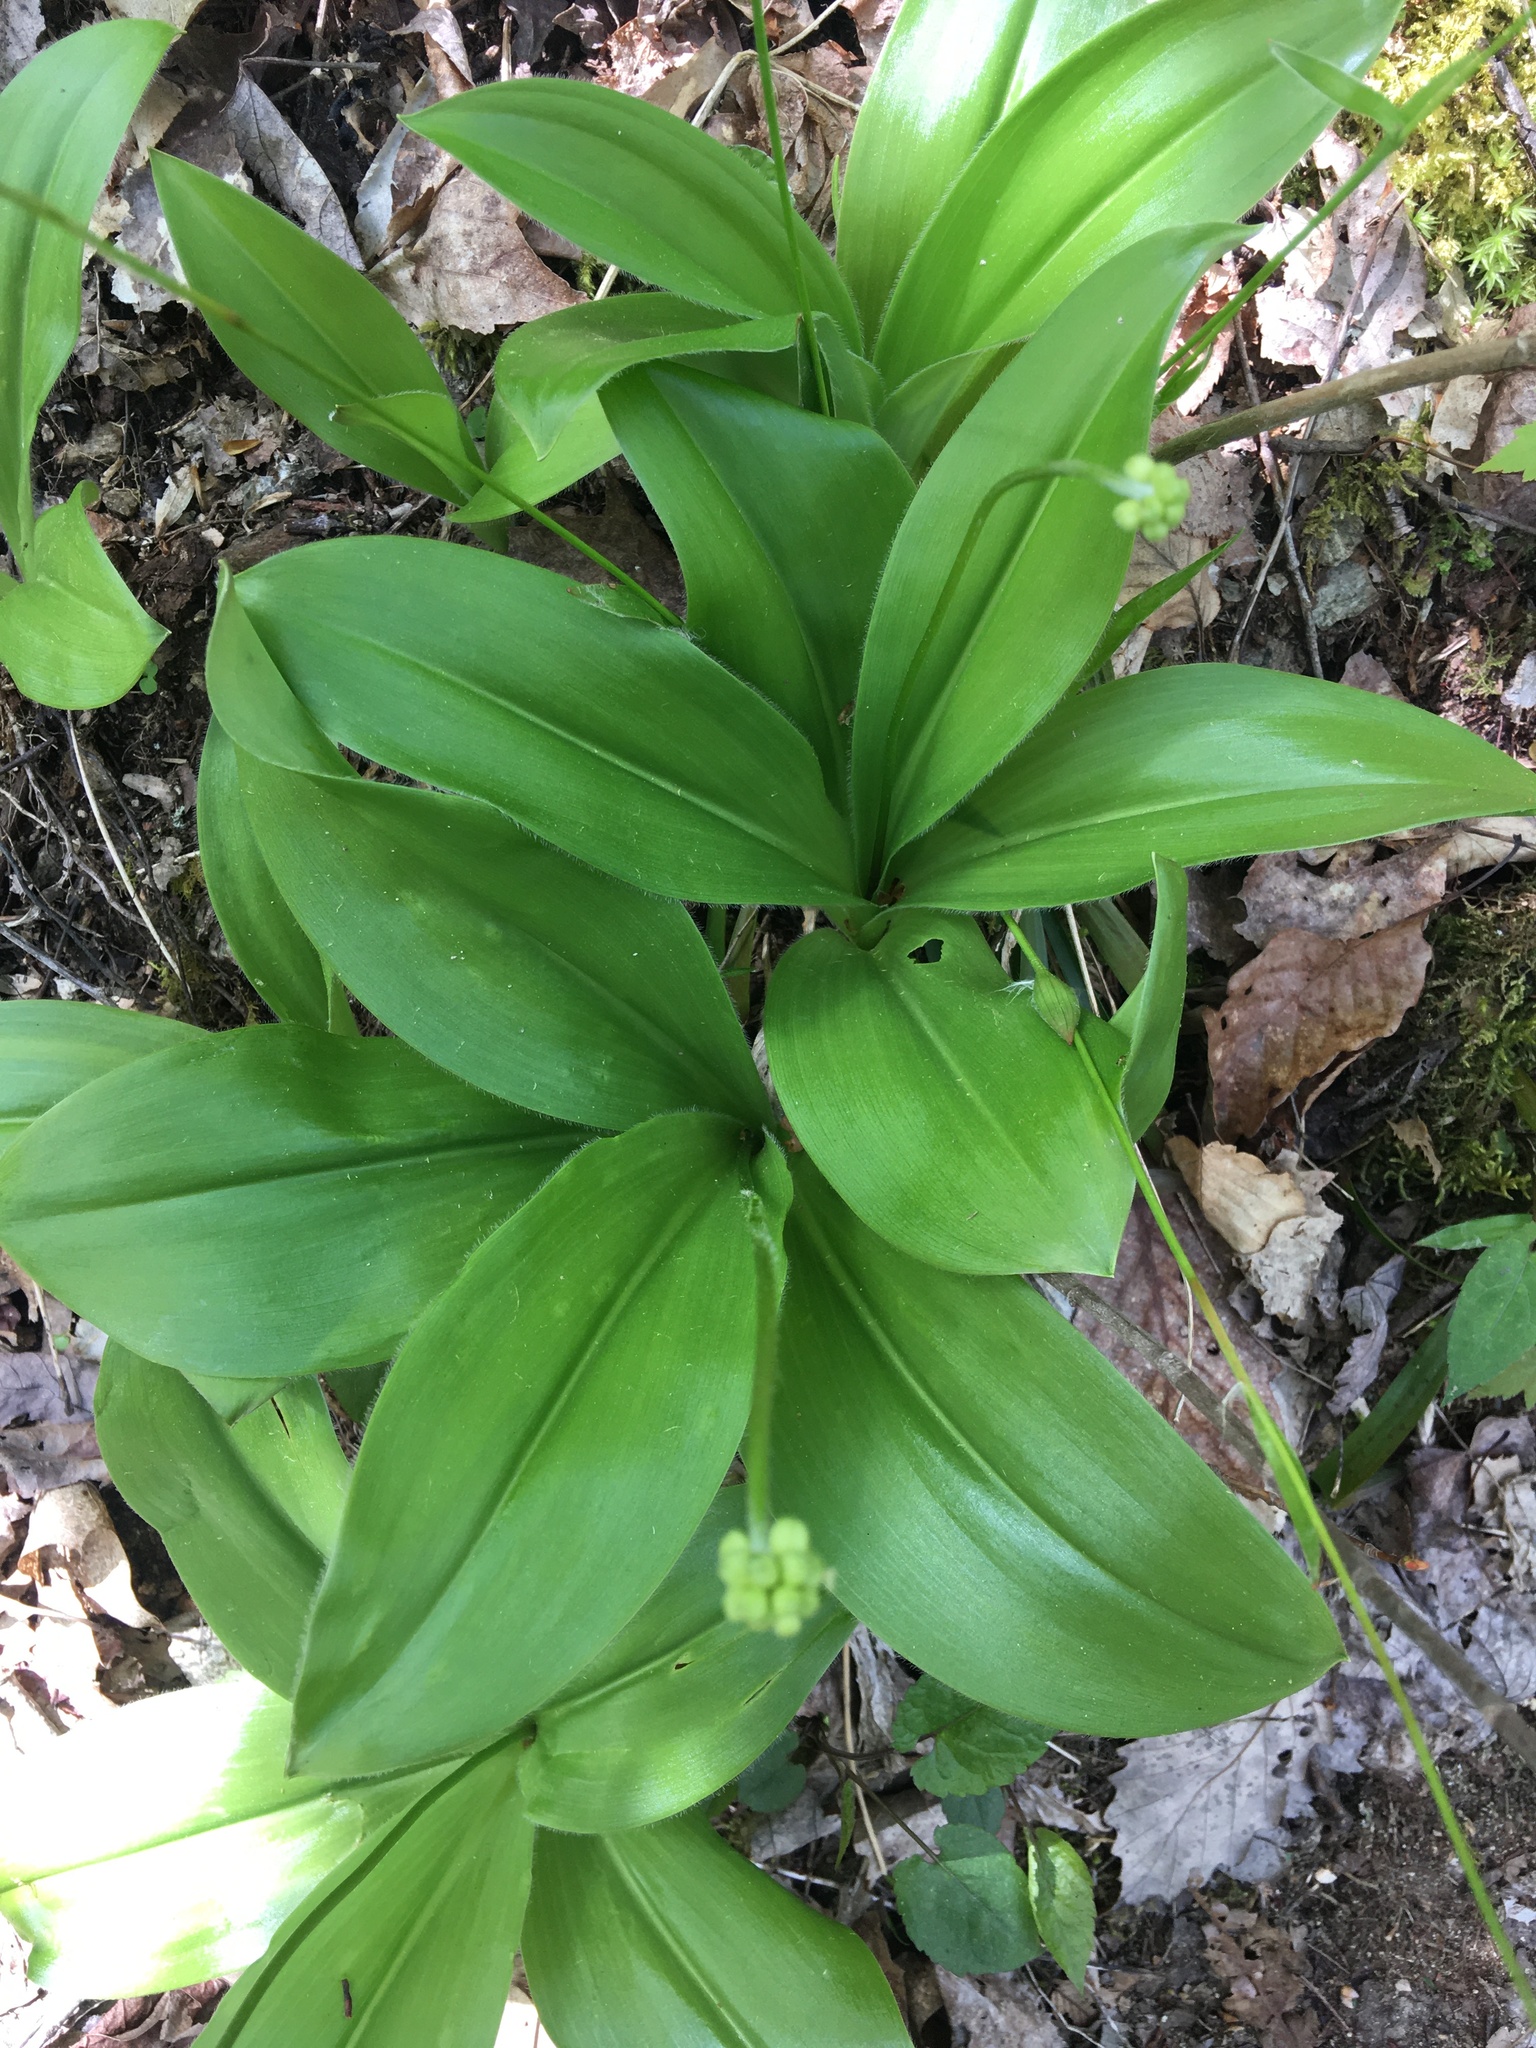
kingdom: Plantae
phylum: Tracheophyta
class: Liliopsida
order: Liliales
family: Liliaceae
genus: Clintonia
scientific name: Clintonia umbellulata
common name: Speckle wood-lily
